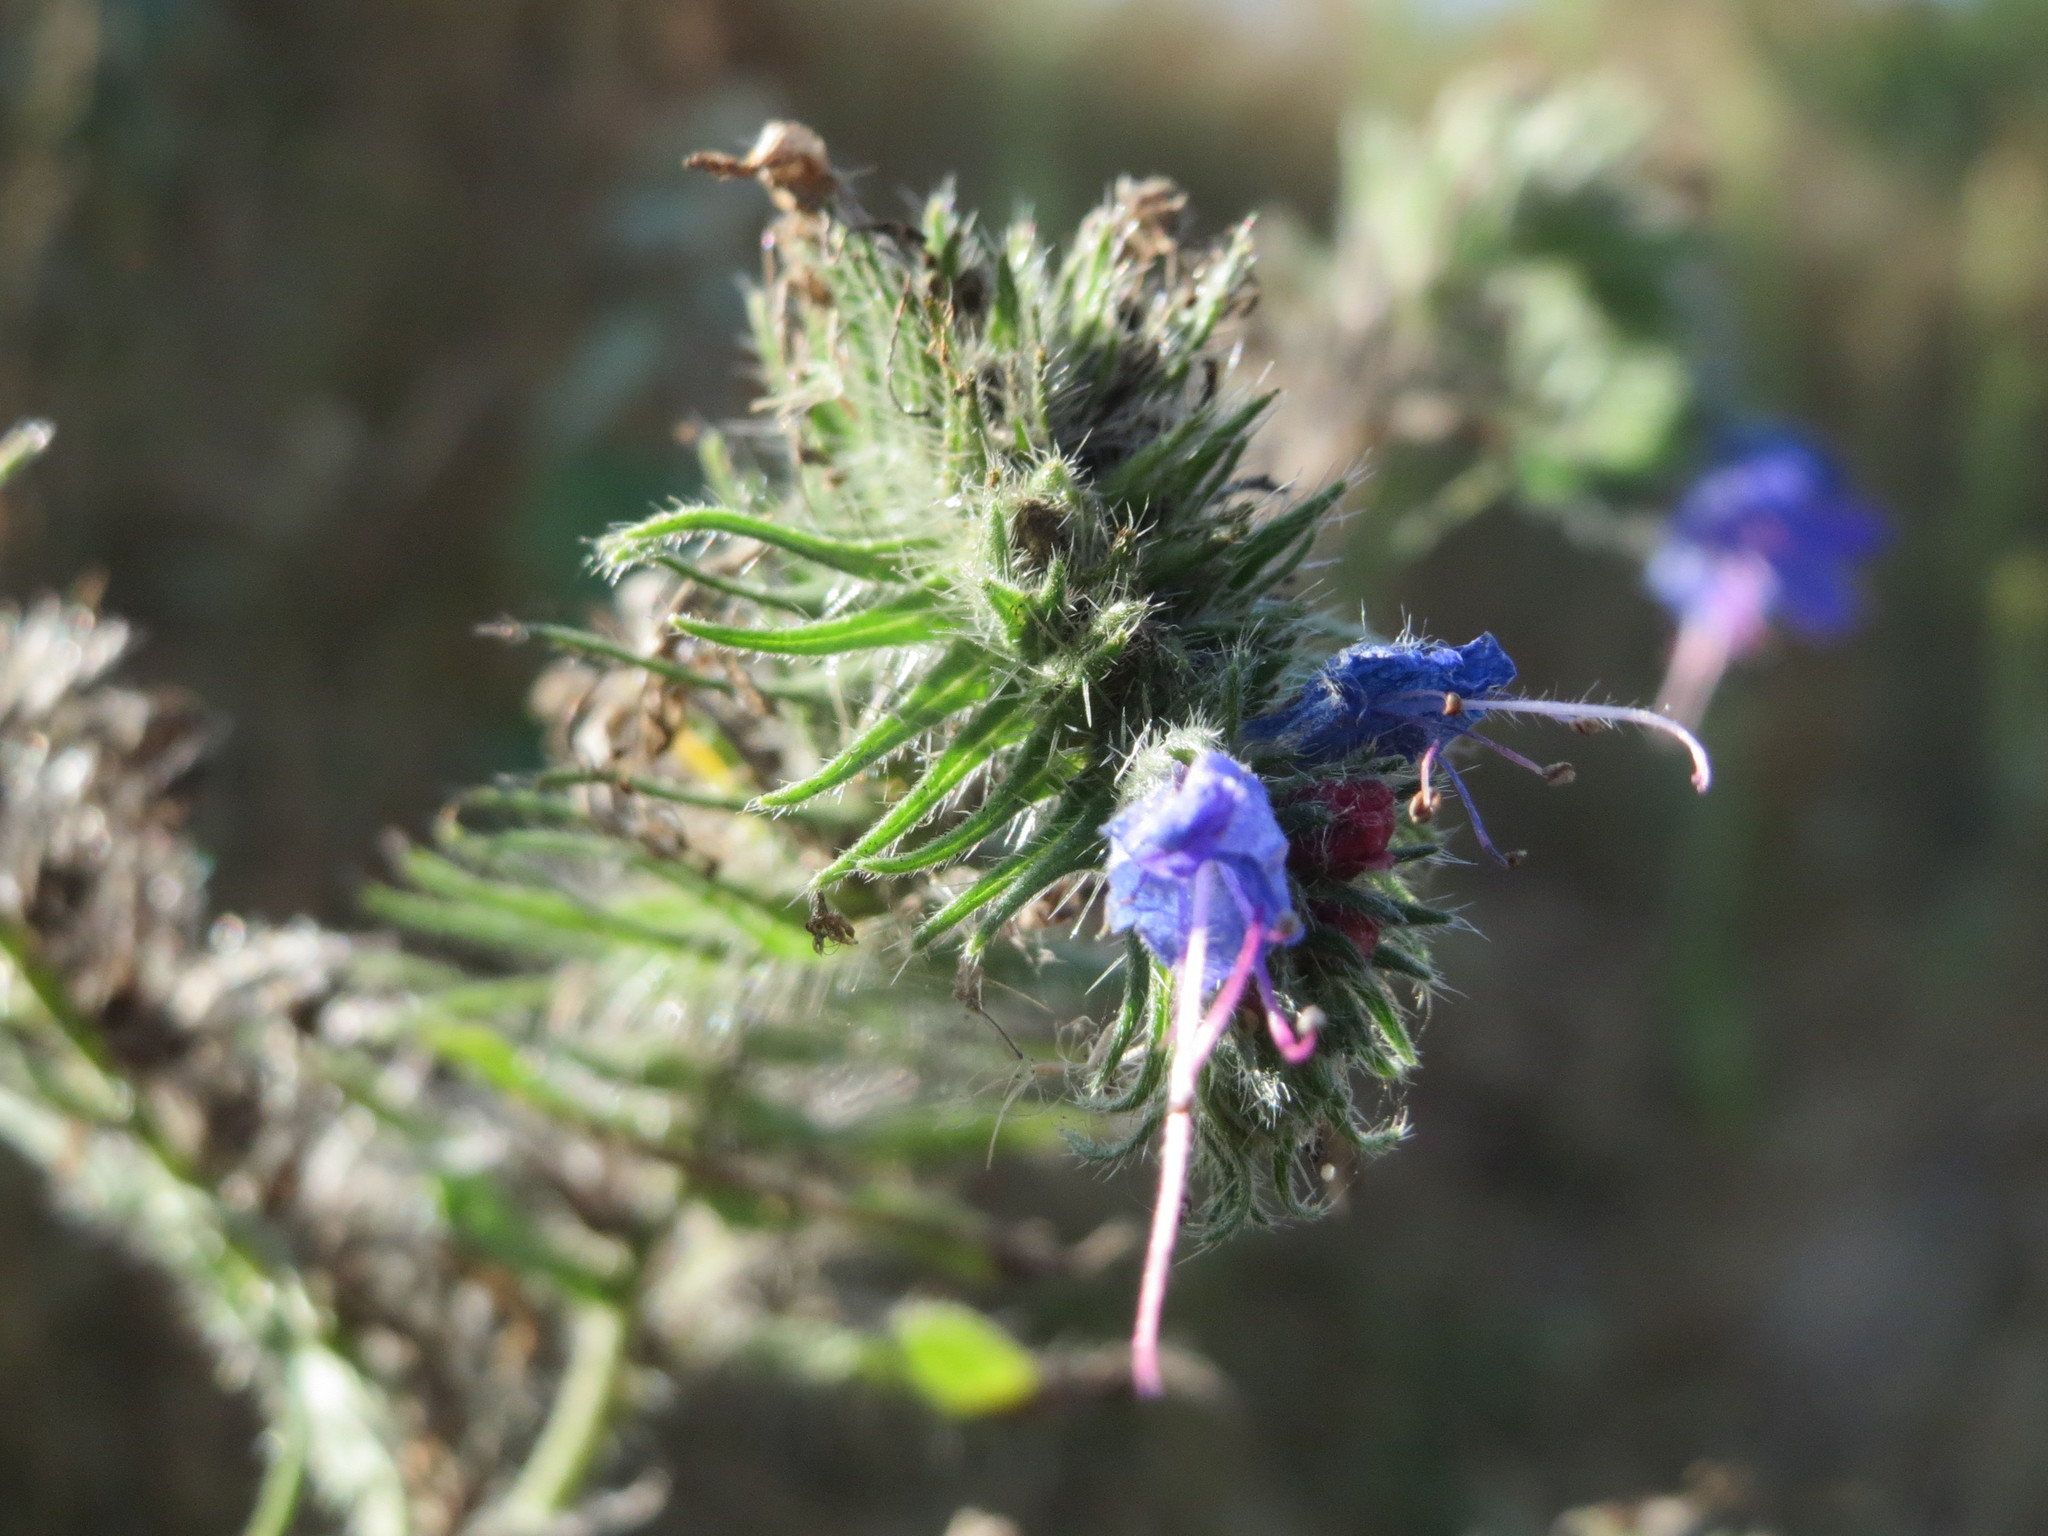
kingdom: Plantae
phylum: Tracheophyta
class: Magnoliopsida
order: Boraginales
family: Boraginaceae
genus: Echium
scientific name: Echium vulgare
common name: Common viper's bugloss
